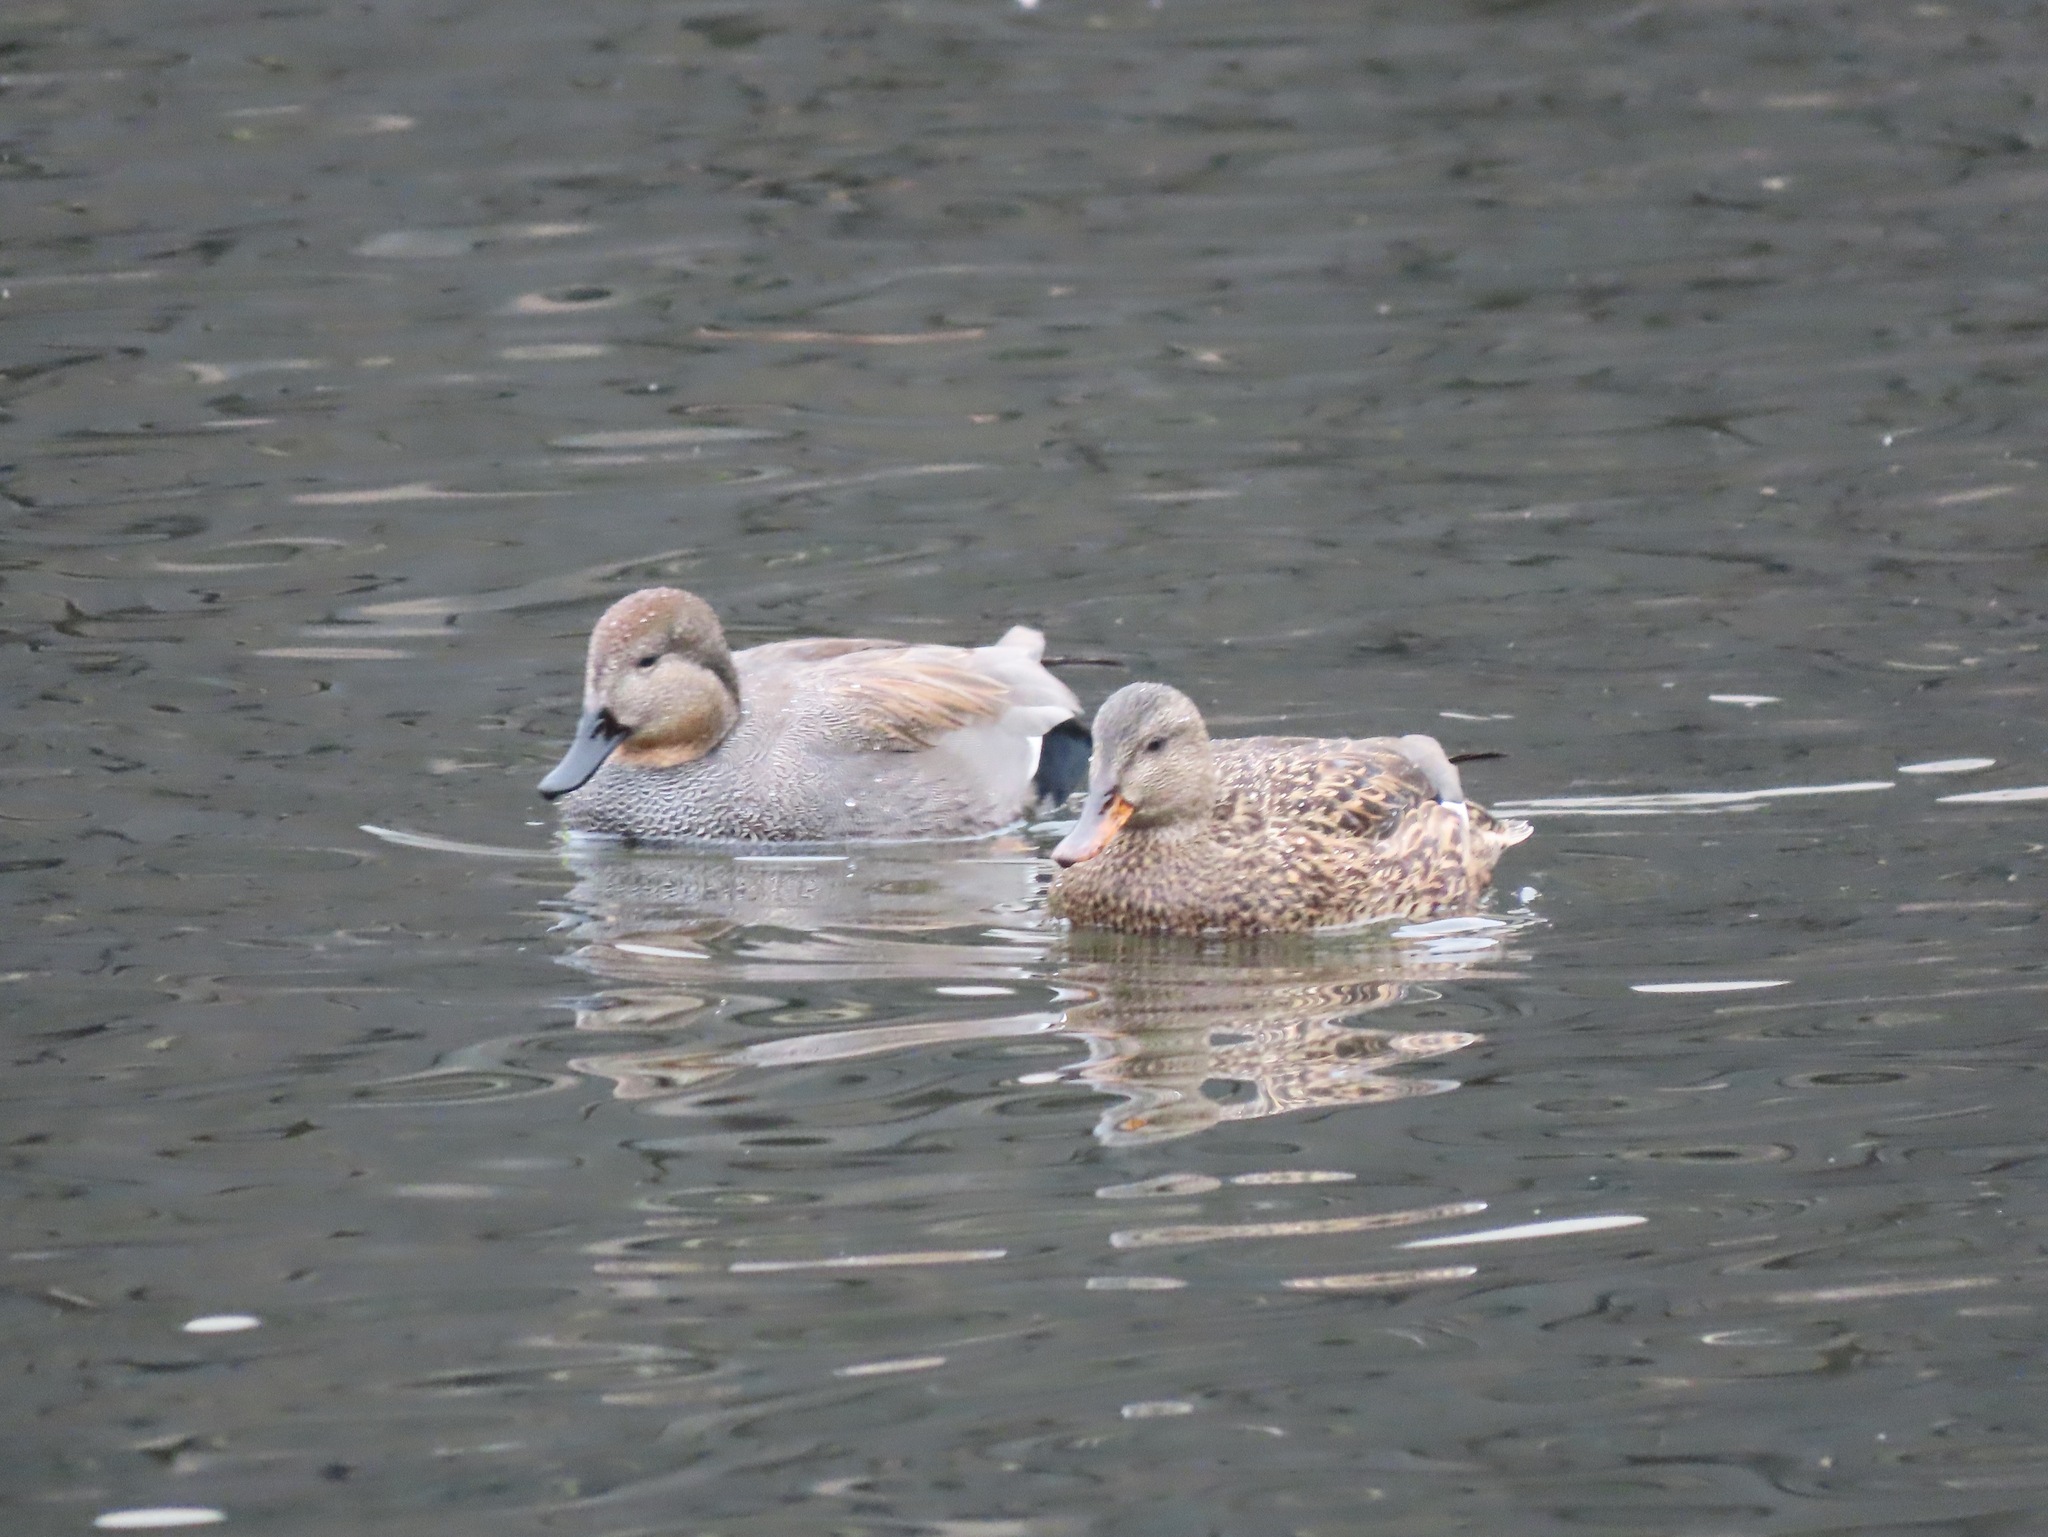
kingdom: Animalia
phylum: Chordata
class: Aves
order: Anseriformes
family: Anatidae
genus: Mareca
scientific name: Mareca strepera
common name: Gadwall
